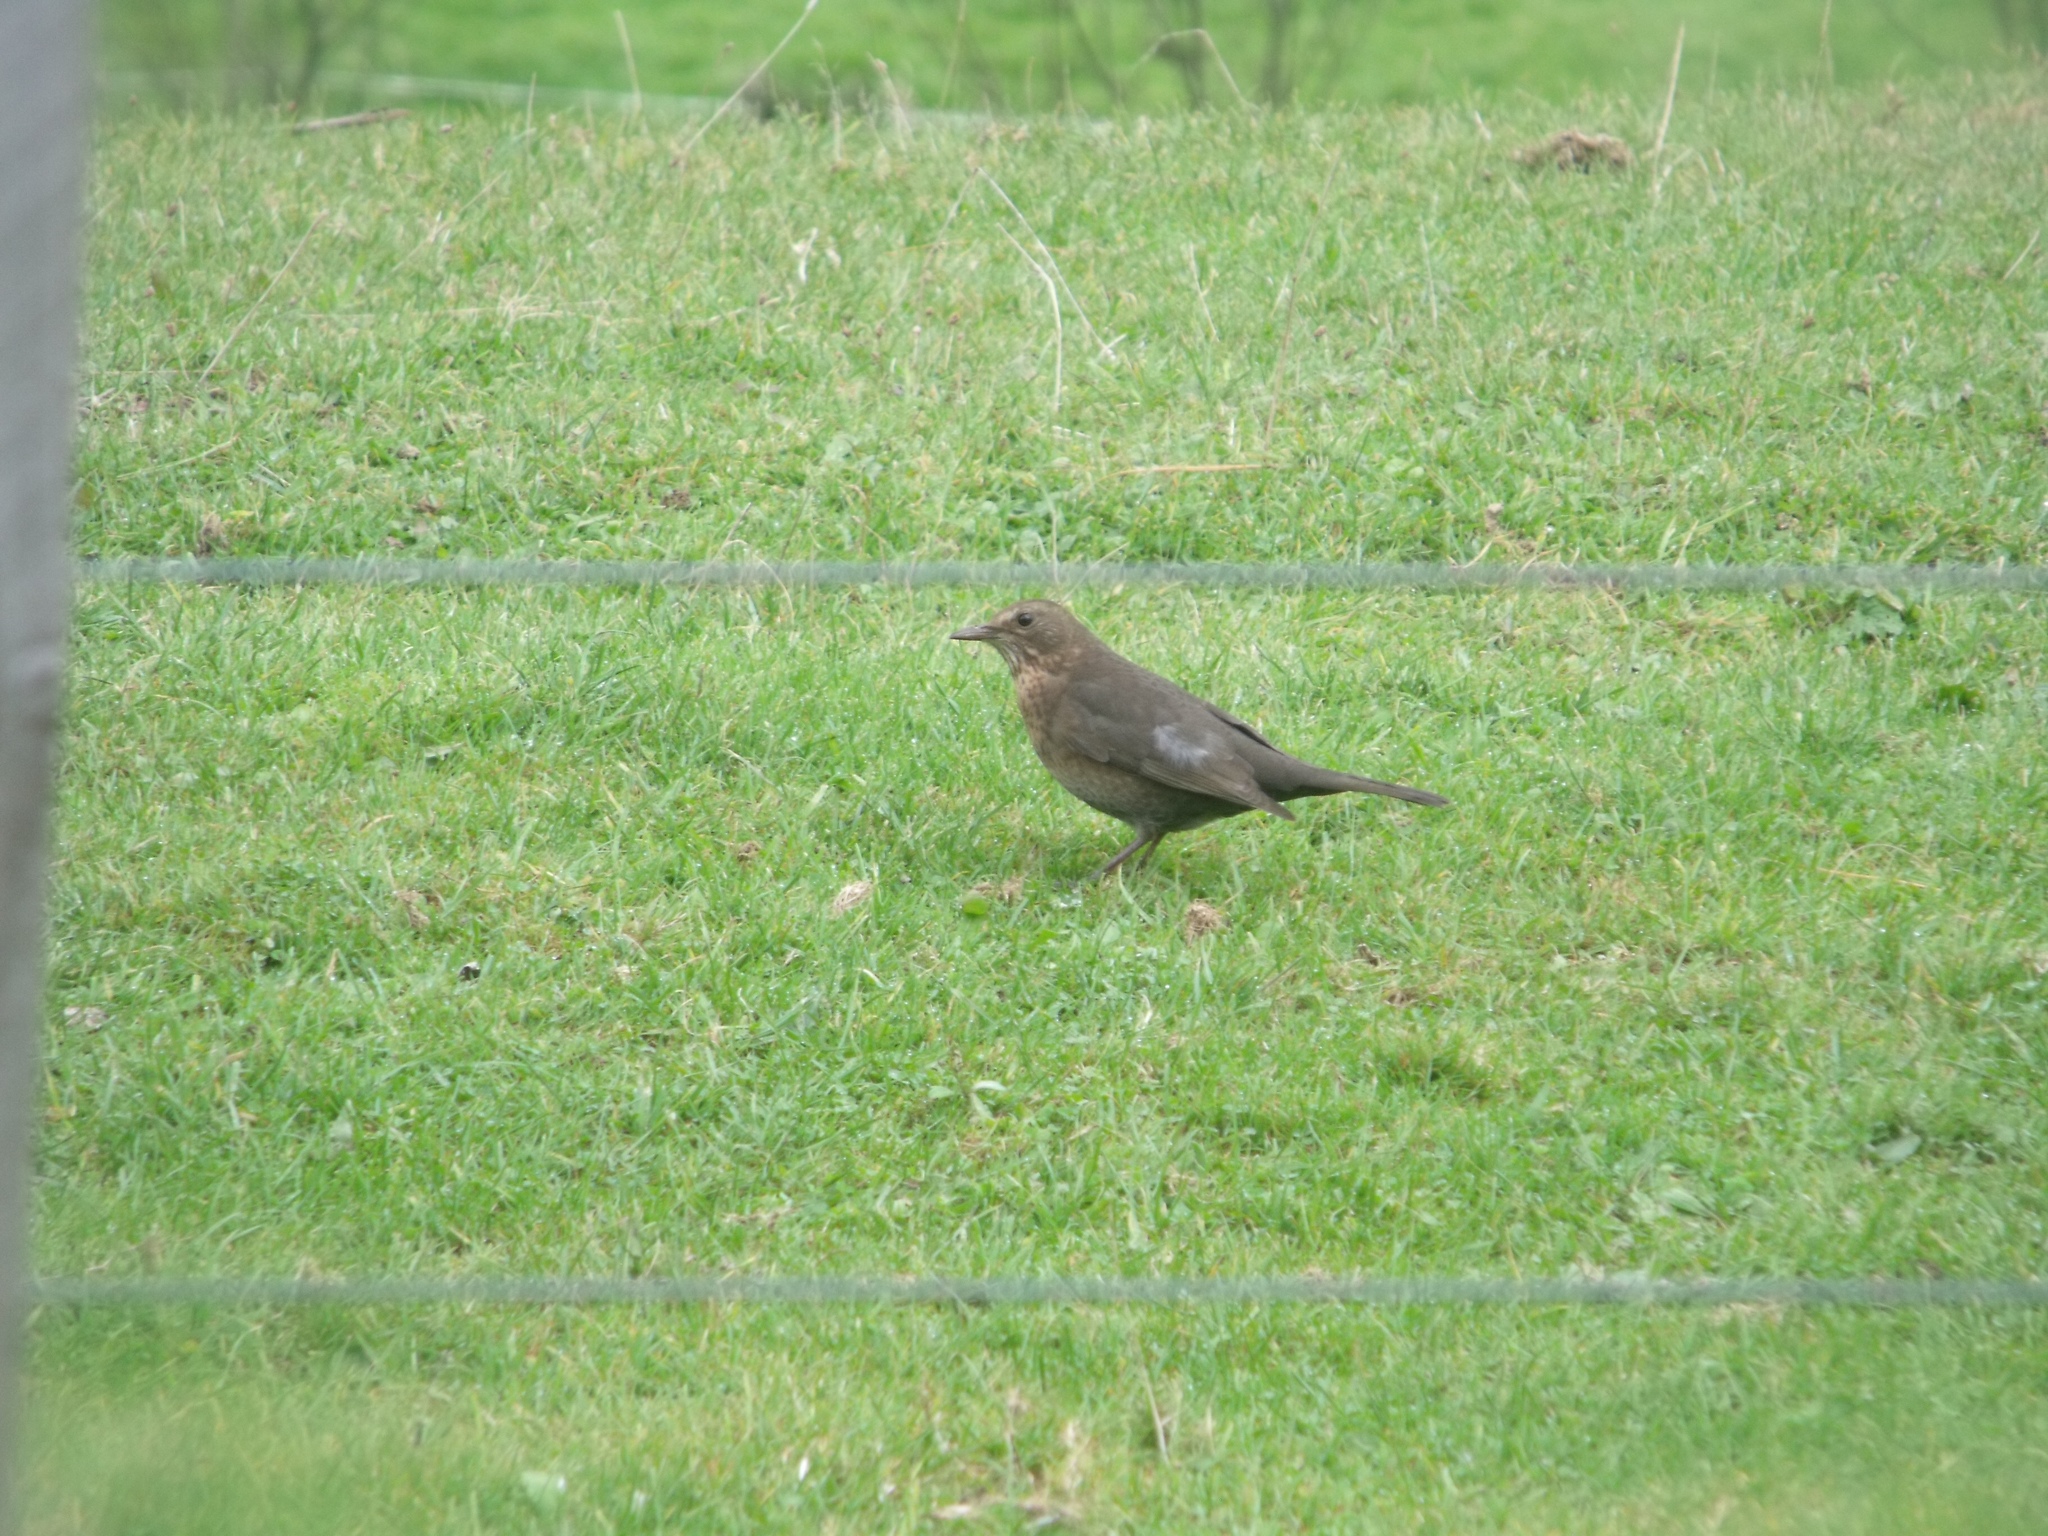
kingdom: Animalia
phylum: Chordata
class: Aves
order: Passeriformes
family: Turdidae
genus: Turdus
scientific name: Turdus merula
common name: Common blackbird
